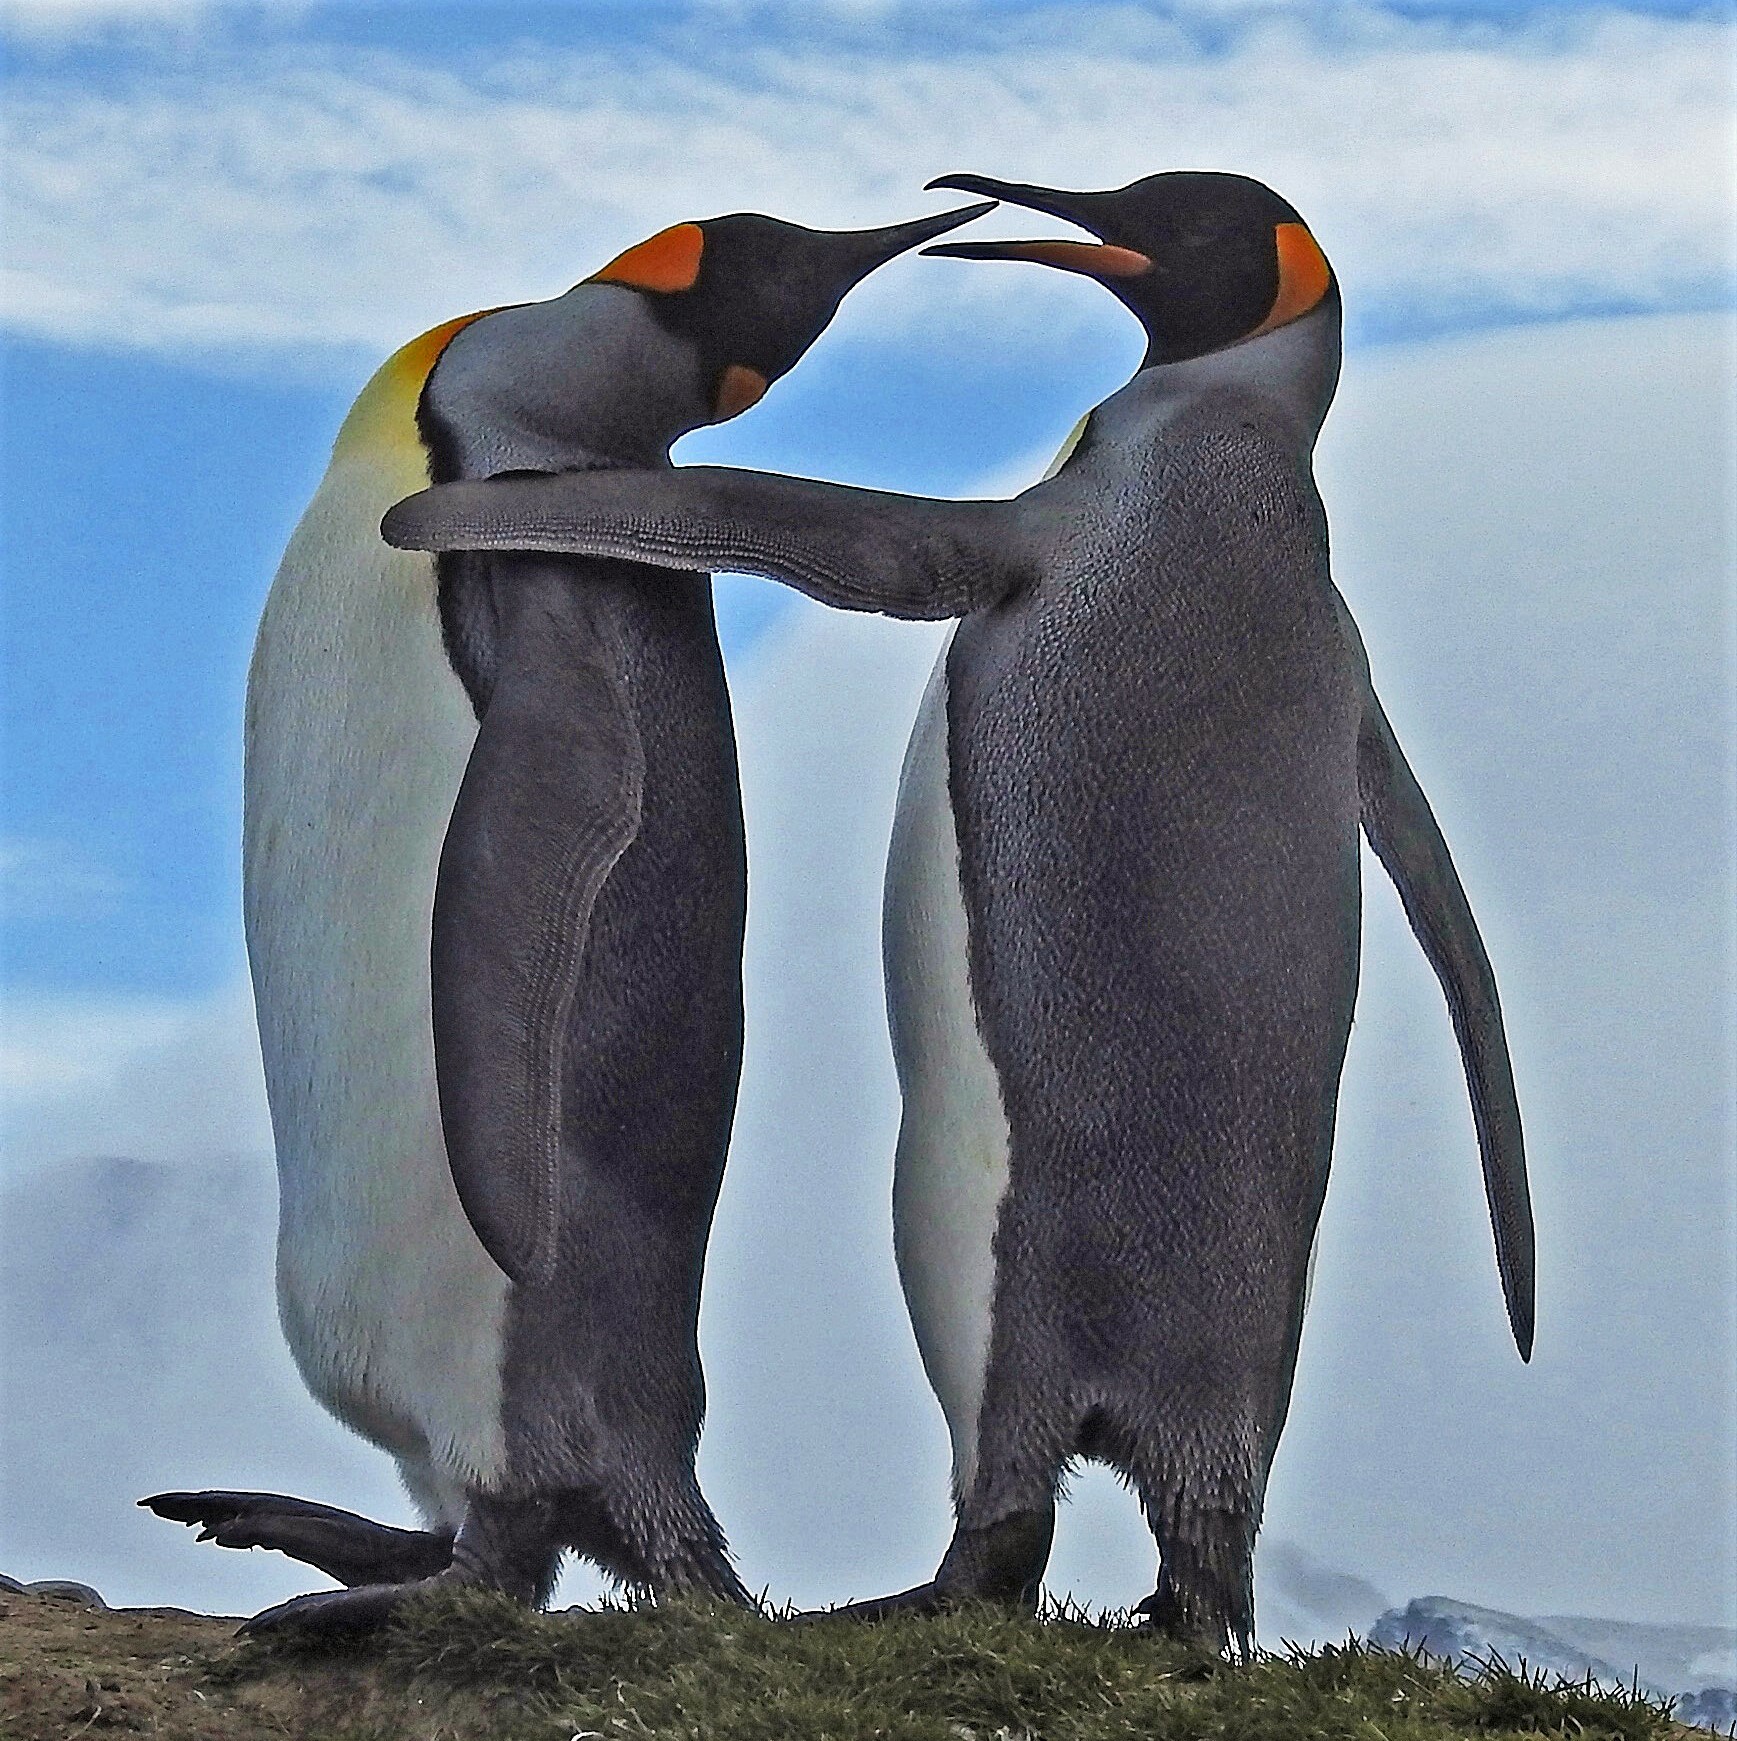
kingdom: Animalia
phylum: Chordata
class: Aves
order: Sphenisciformes
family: Spheniscidae
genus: Aptenodytes
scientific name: Aptenodytes patagonicus
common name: King penguin
